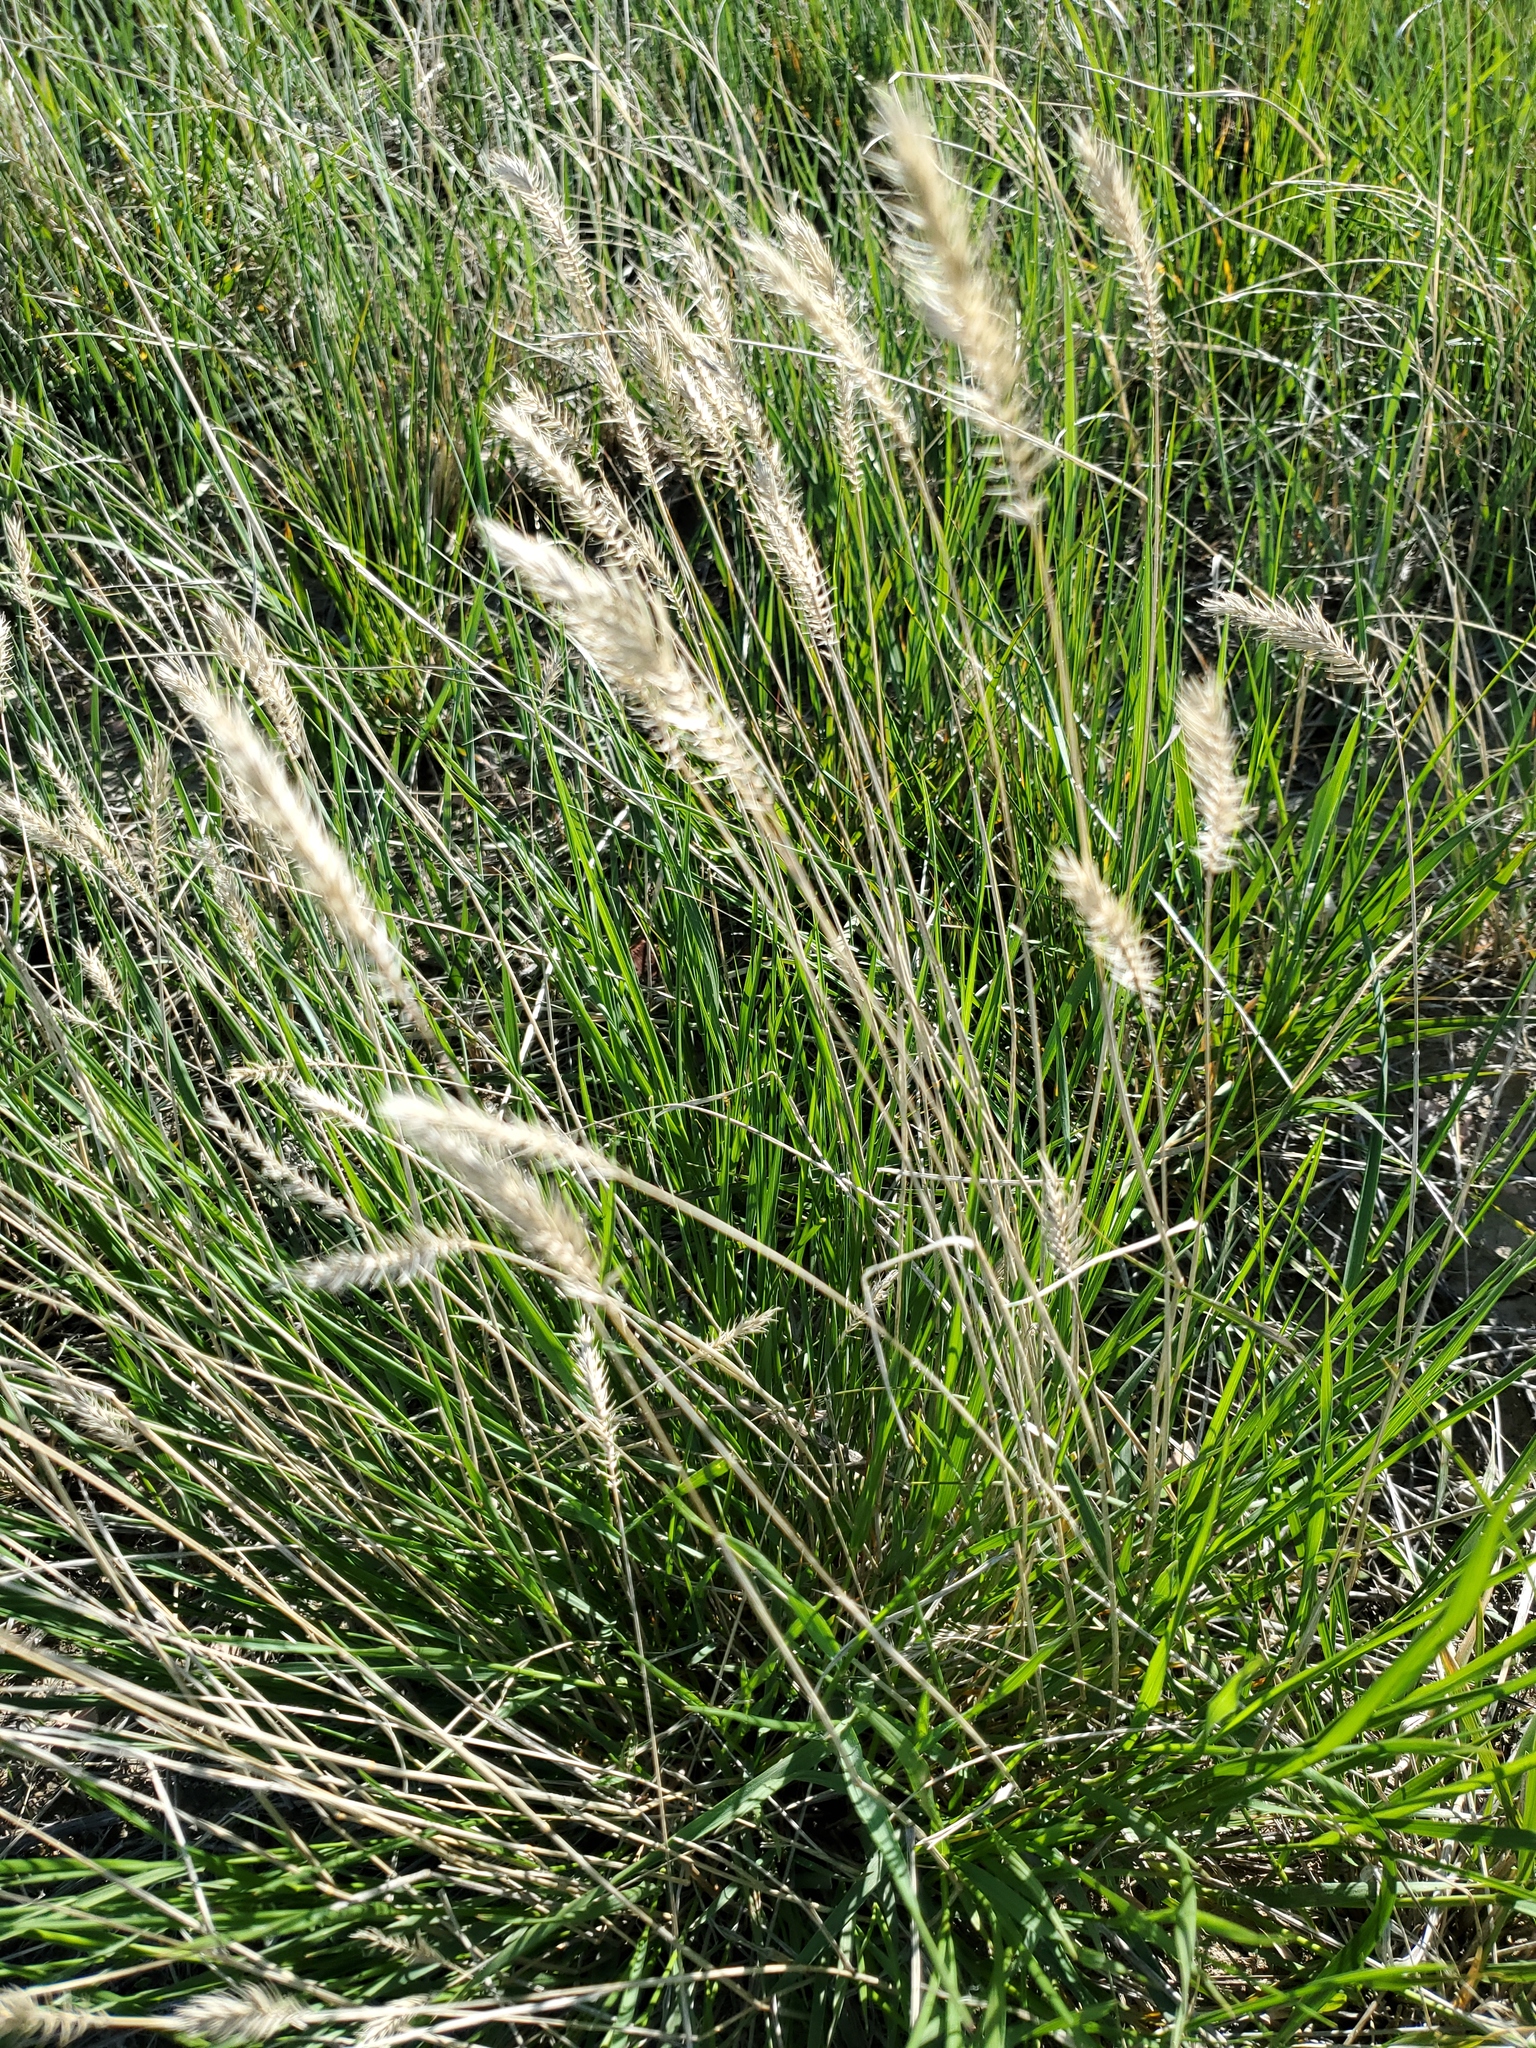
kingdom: Plantae
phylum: Tracheophyta
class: Liliopsida
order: Poales
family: Poaceae
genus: Agropyron
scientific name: Agropyron cristatum
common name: Crested wheatgrass
